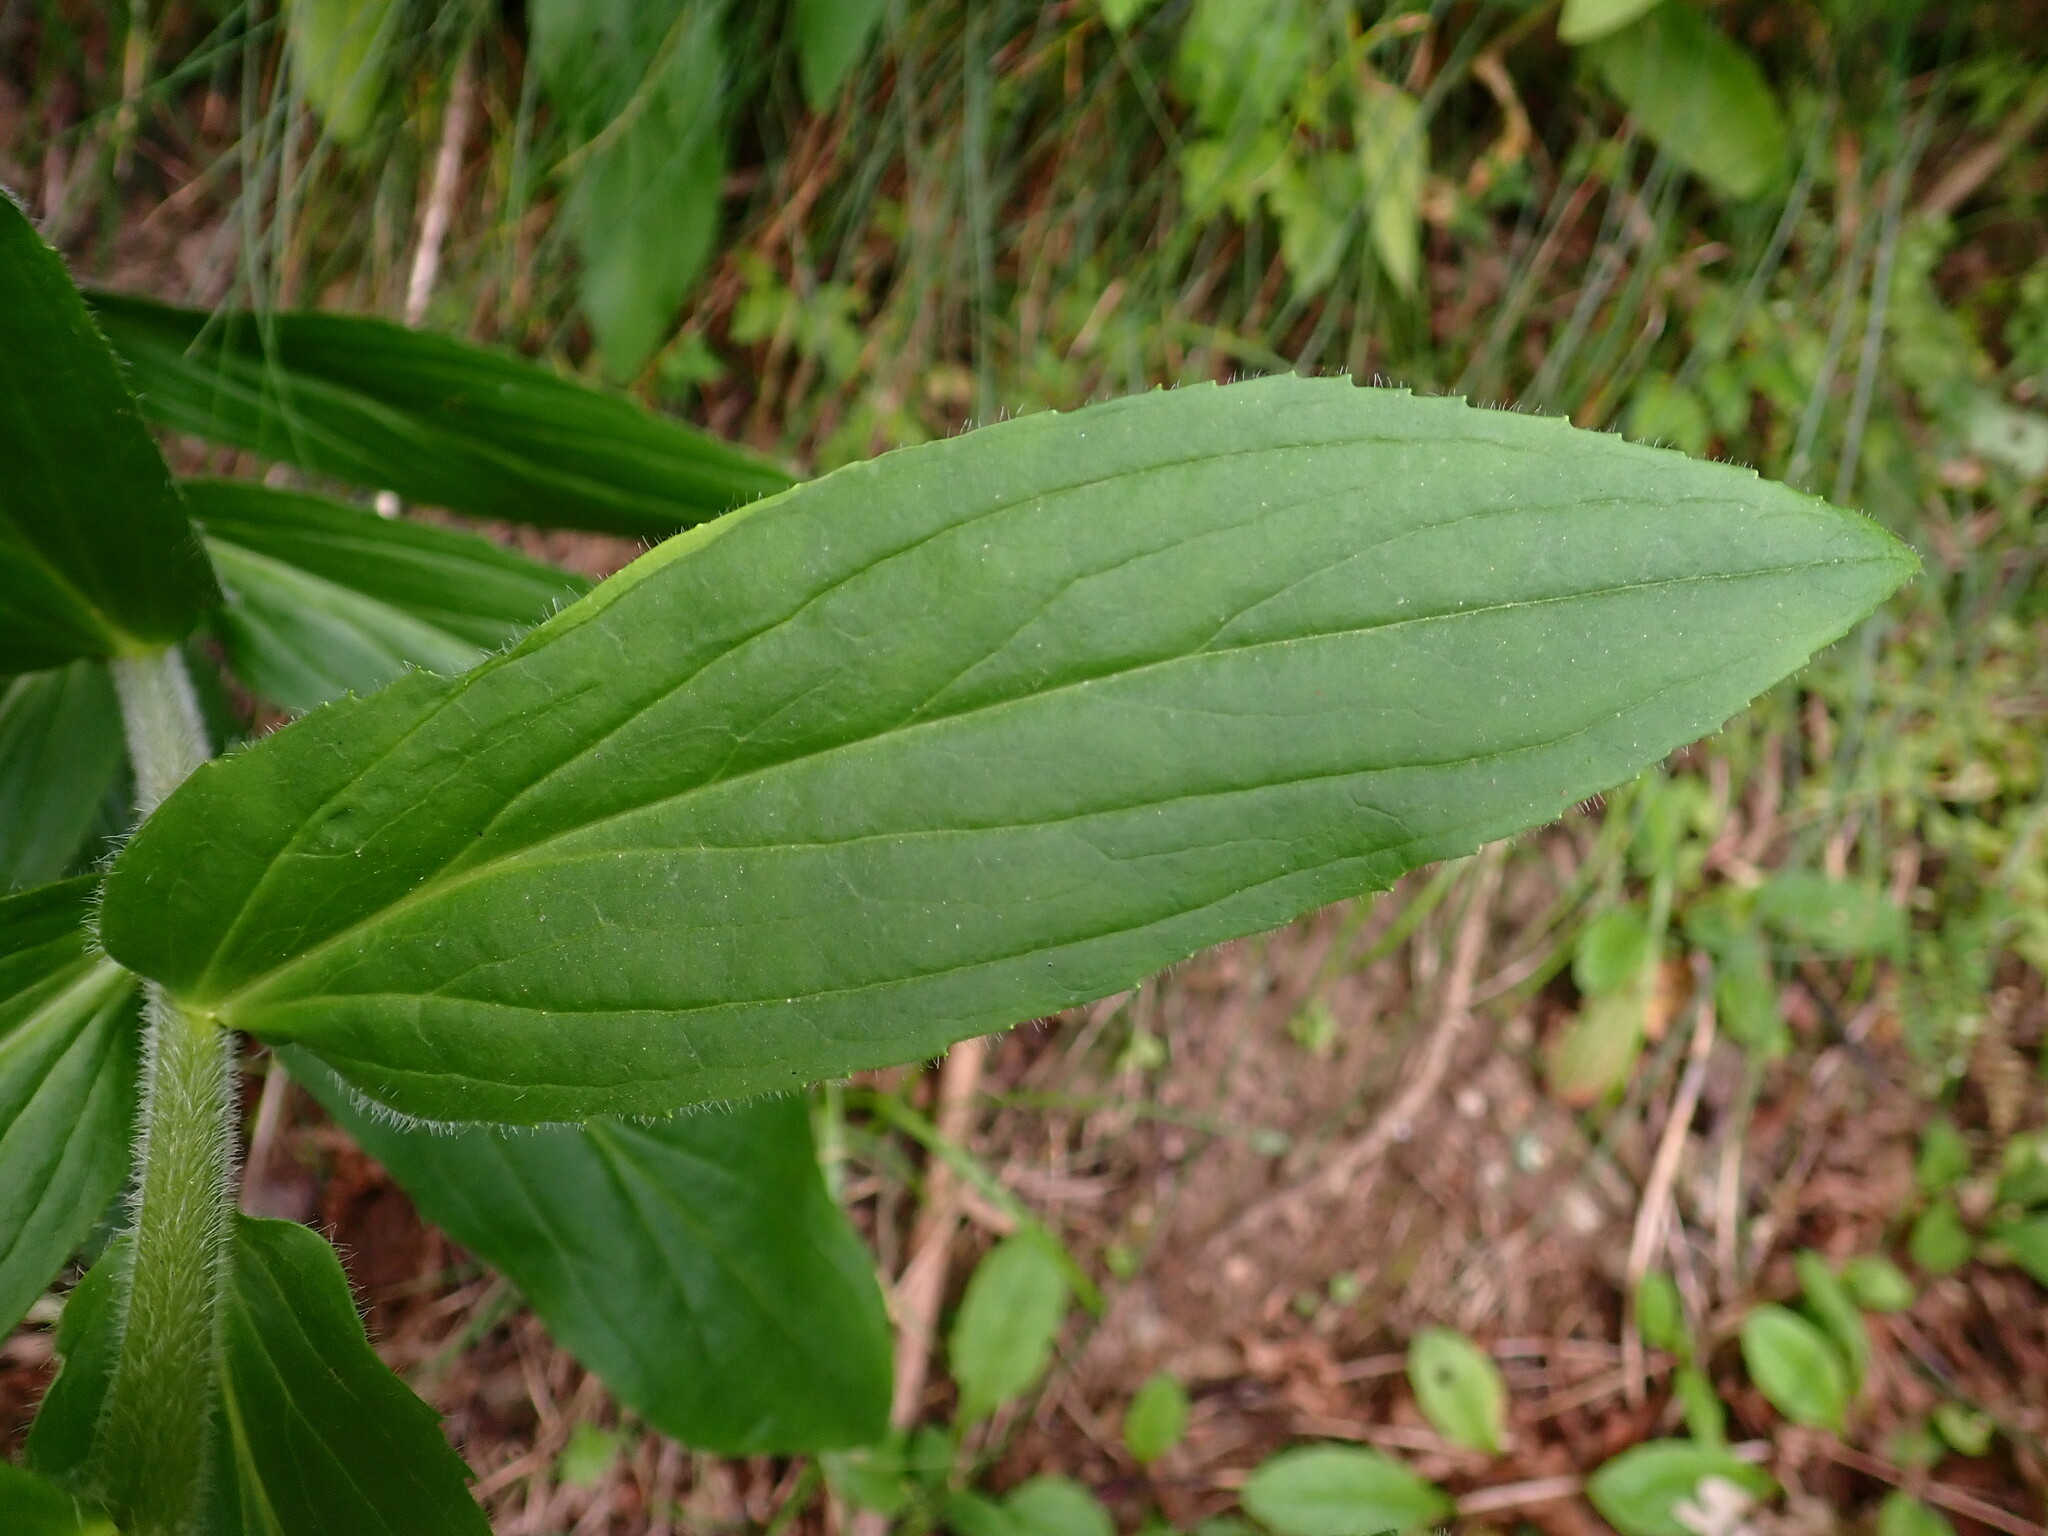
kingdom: Plantae
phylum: Tracheophyta
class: Magnoliopsida
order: Lamiales
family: Plantaginaceae
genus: Digitalis
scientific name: Digitalis lutea
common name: Straw foxglove
